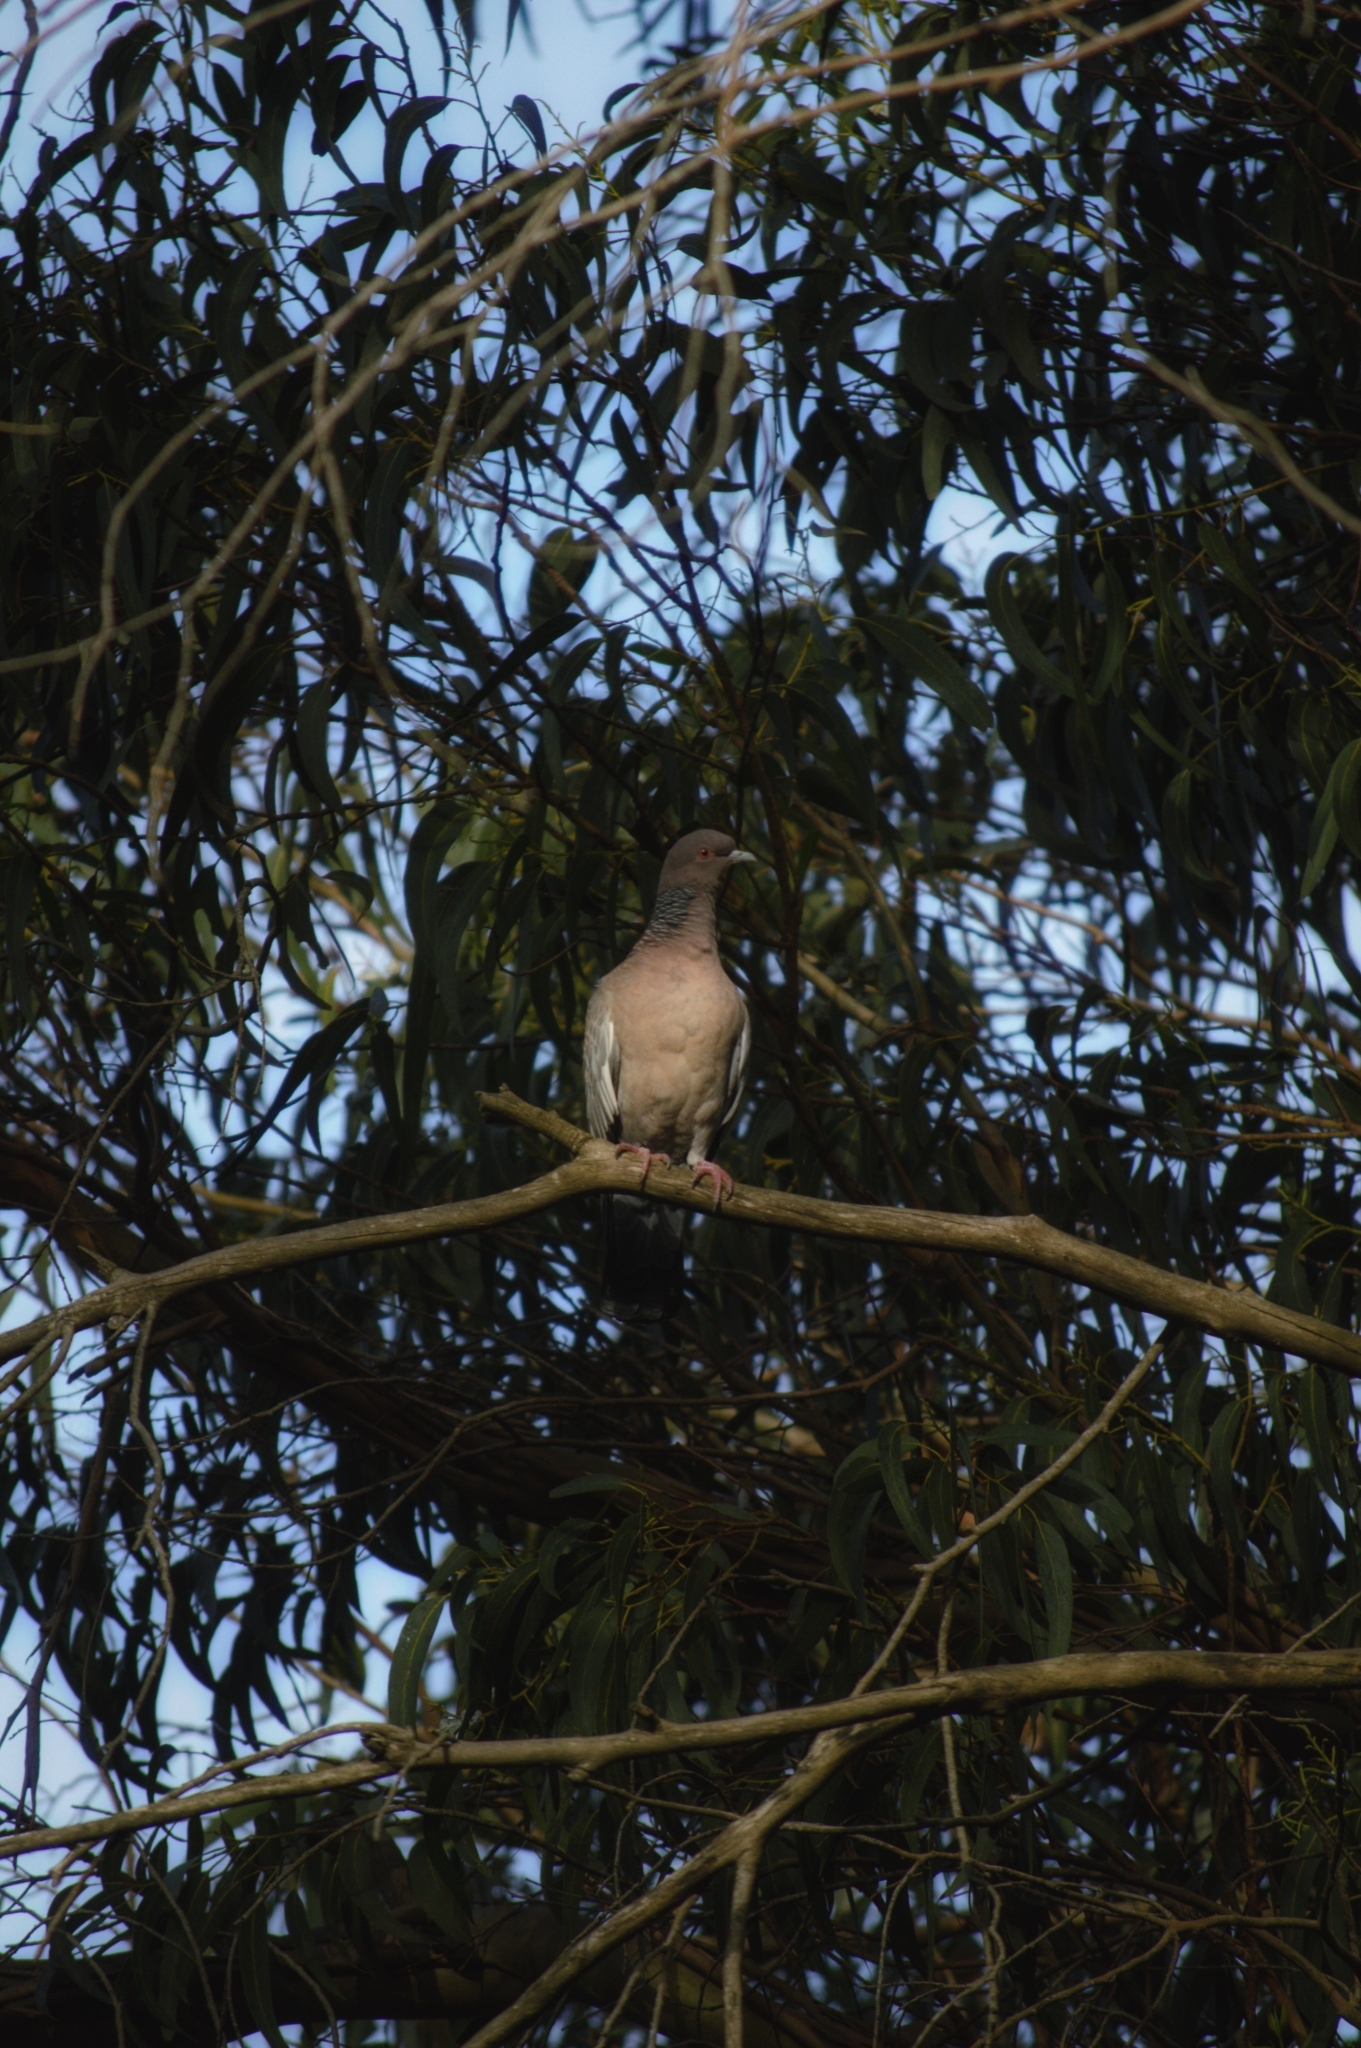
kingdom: Animalia
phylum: Chordata
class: Aves
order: Columbiformes
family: Columbidae
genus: Patagioenas
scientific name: Patagioenas picazuro
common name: Picazuro pigeon
